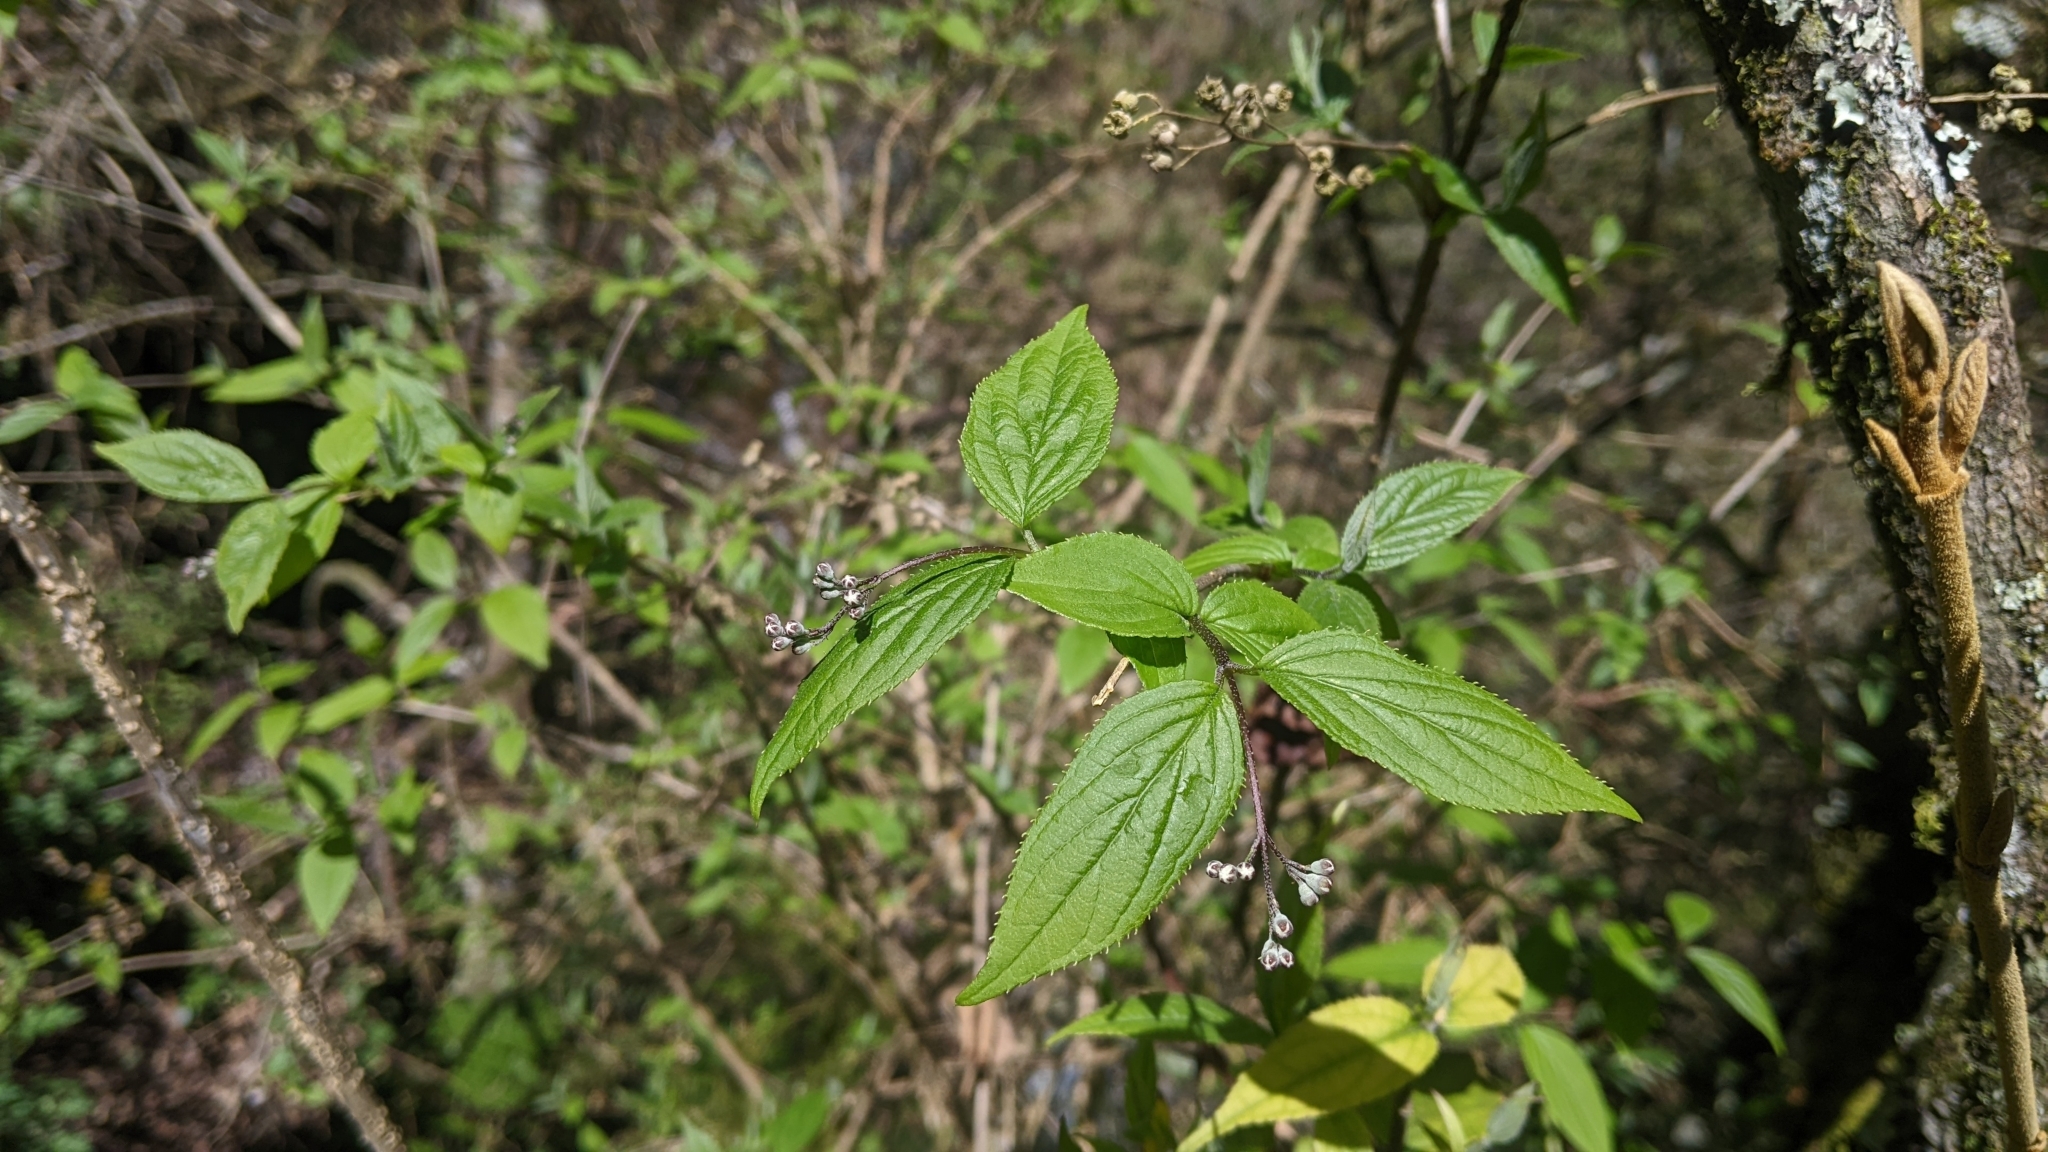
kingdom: Plantae
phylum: Tracheophyta
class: Magnoliopsida
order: Cornales
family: Hydrangeaceae
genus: Deutzia
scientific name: Deutzia taiwanensis
